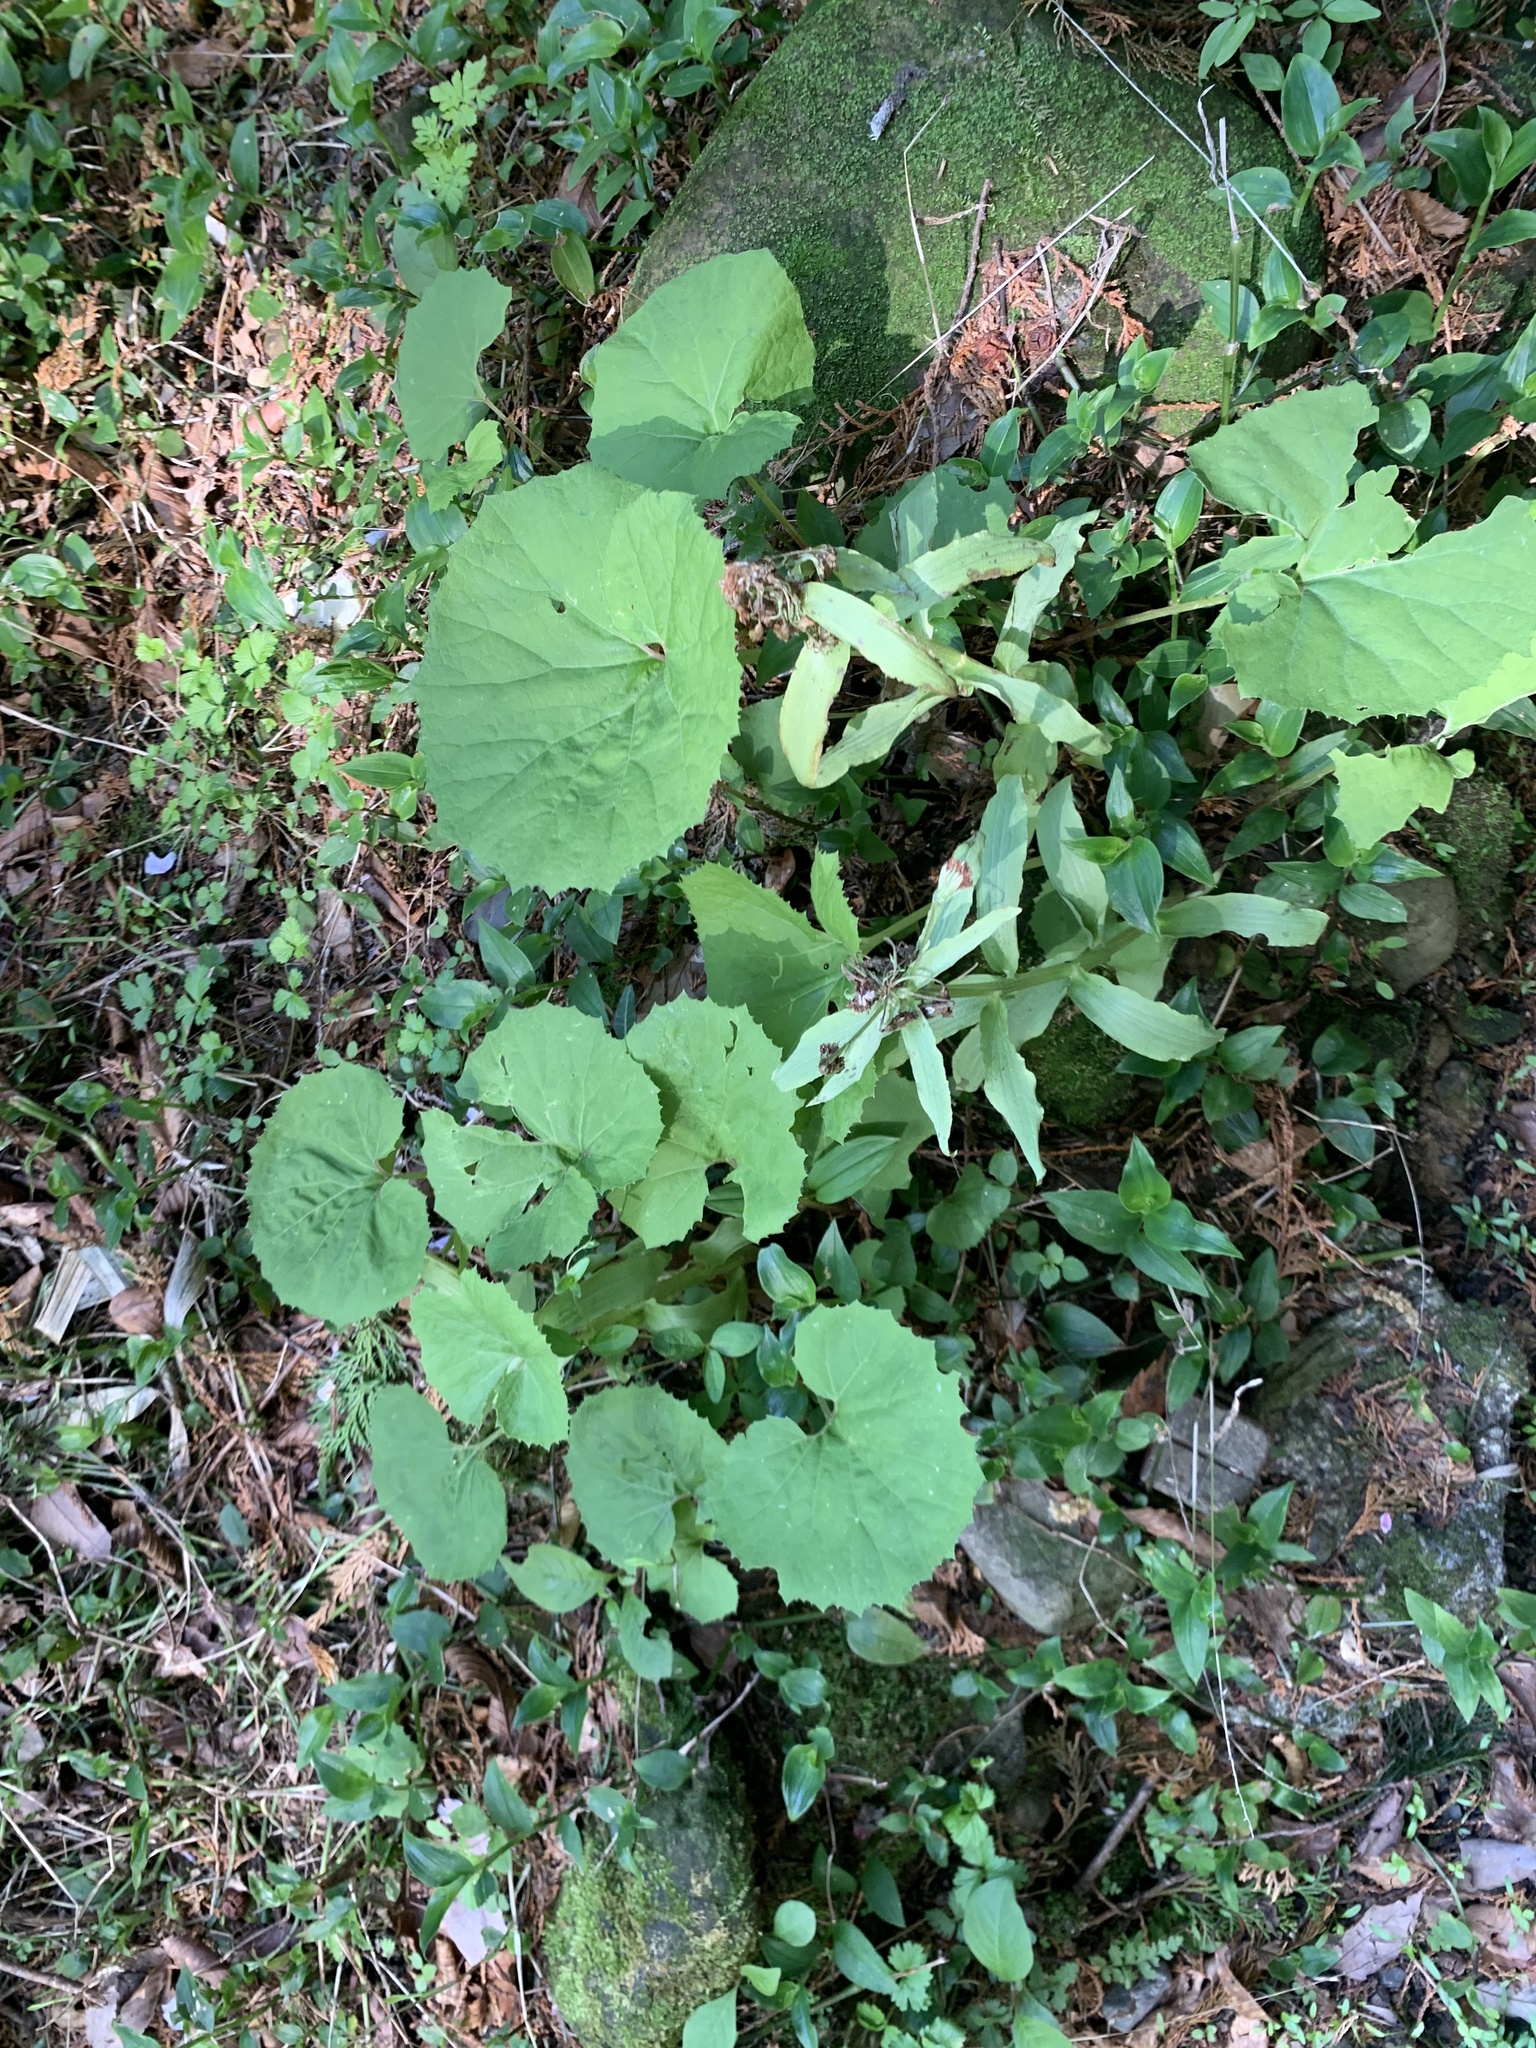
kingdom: Plantae
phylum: Tracheophyta
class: Magnoliopsida
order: Asterales
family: Asteraceae
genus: Petasites
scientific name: Petasites japonicus
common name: Giant butterbur
